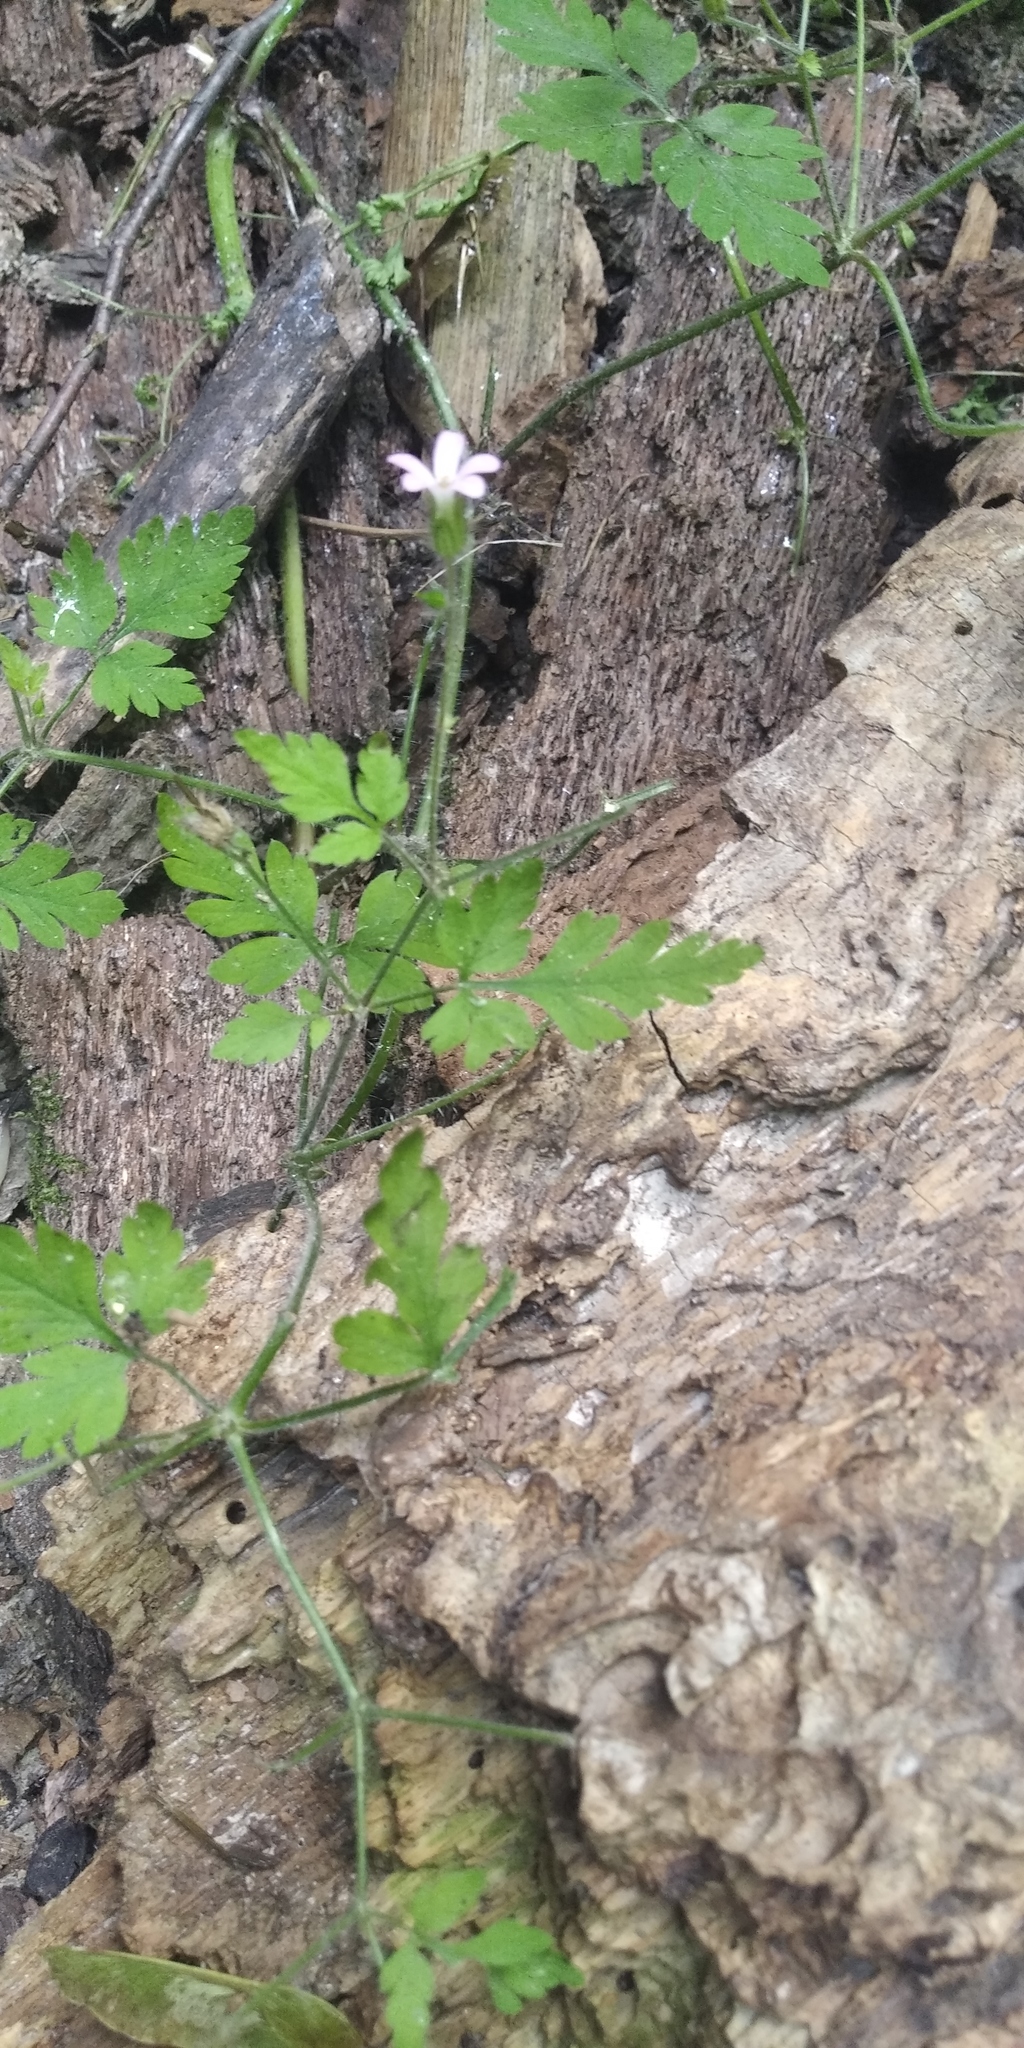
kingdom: Plantae
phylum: Tracheophyta
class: Magnoliopsida
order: Geraniales
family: Geraniaceae
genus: Geranium
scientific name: Geranium robertianum
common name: Herb-robert
